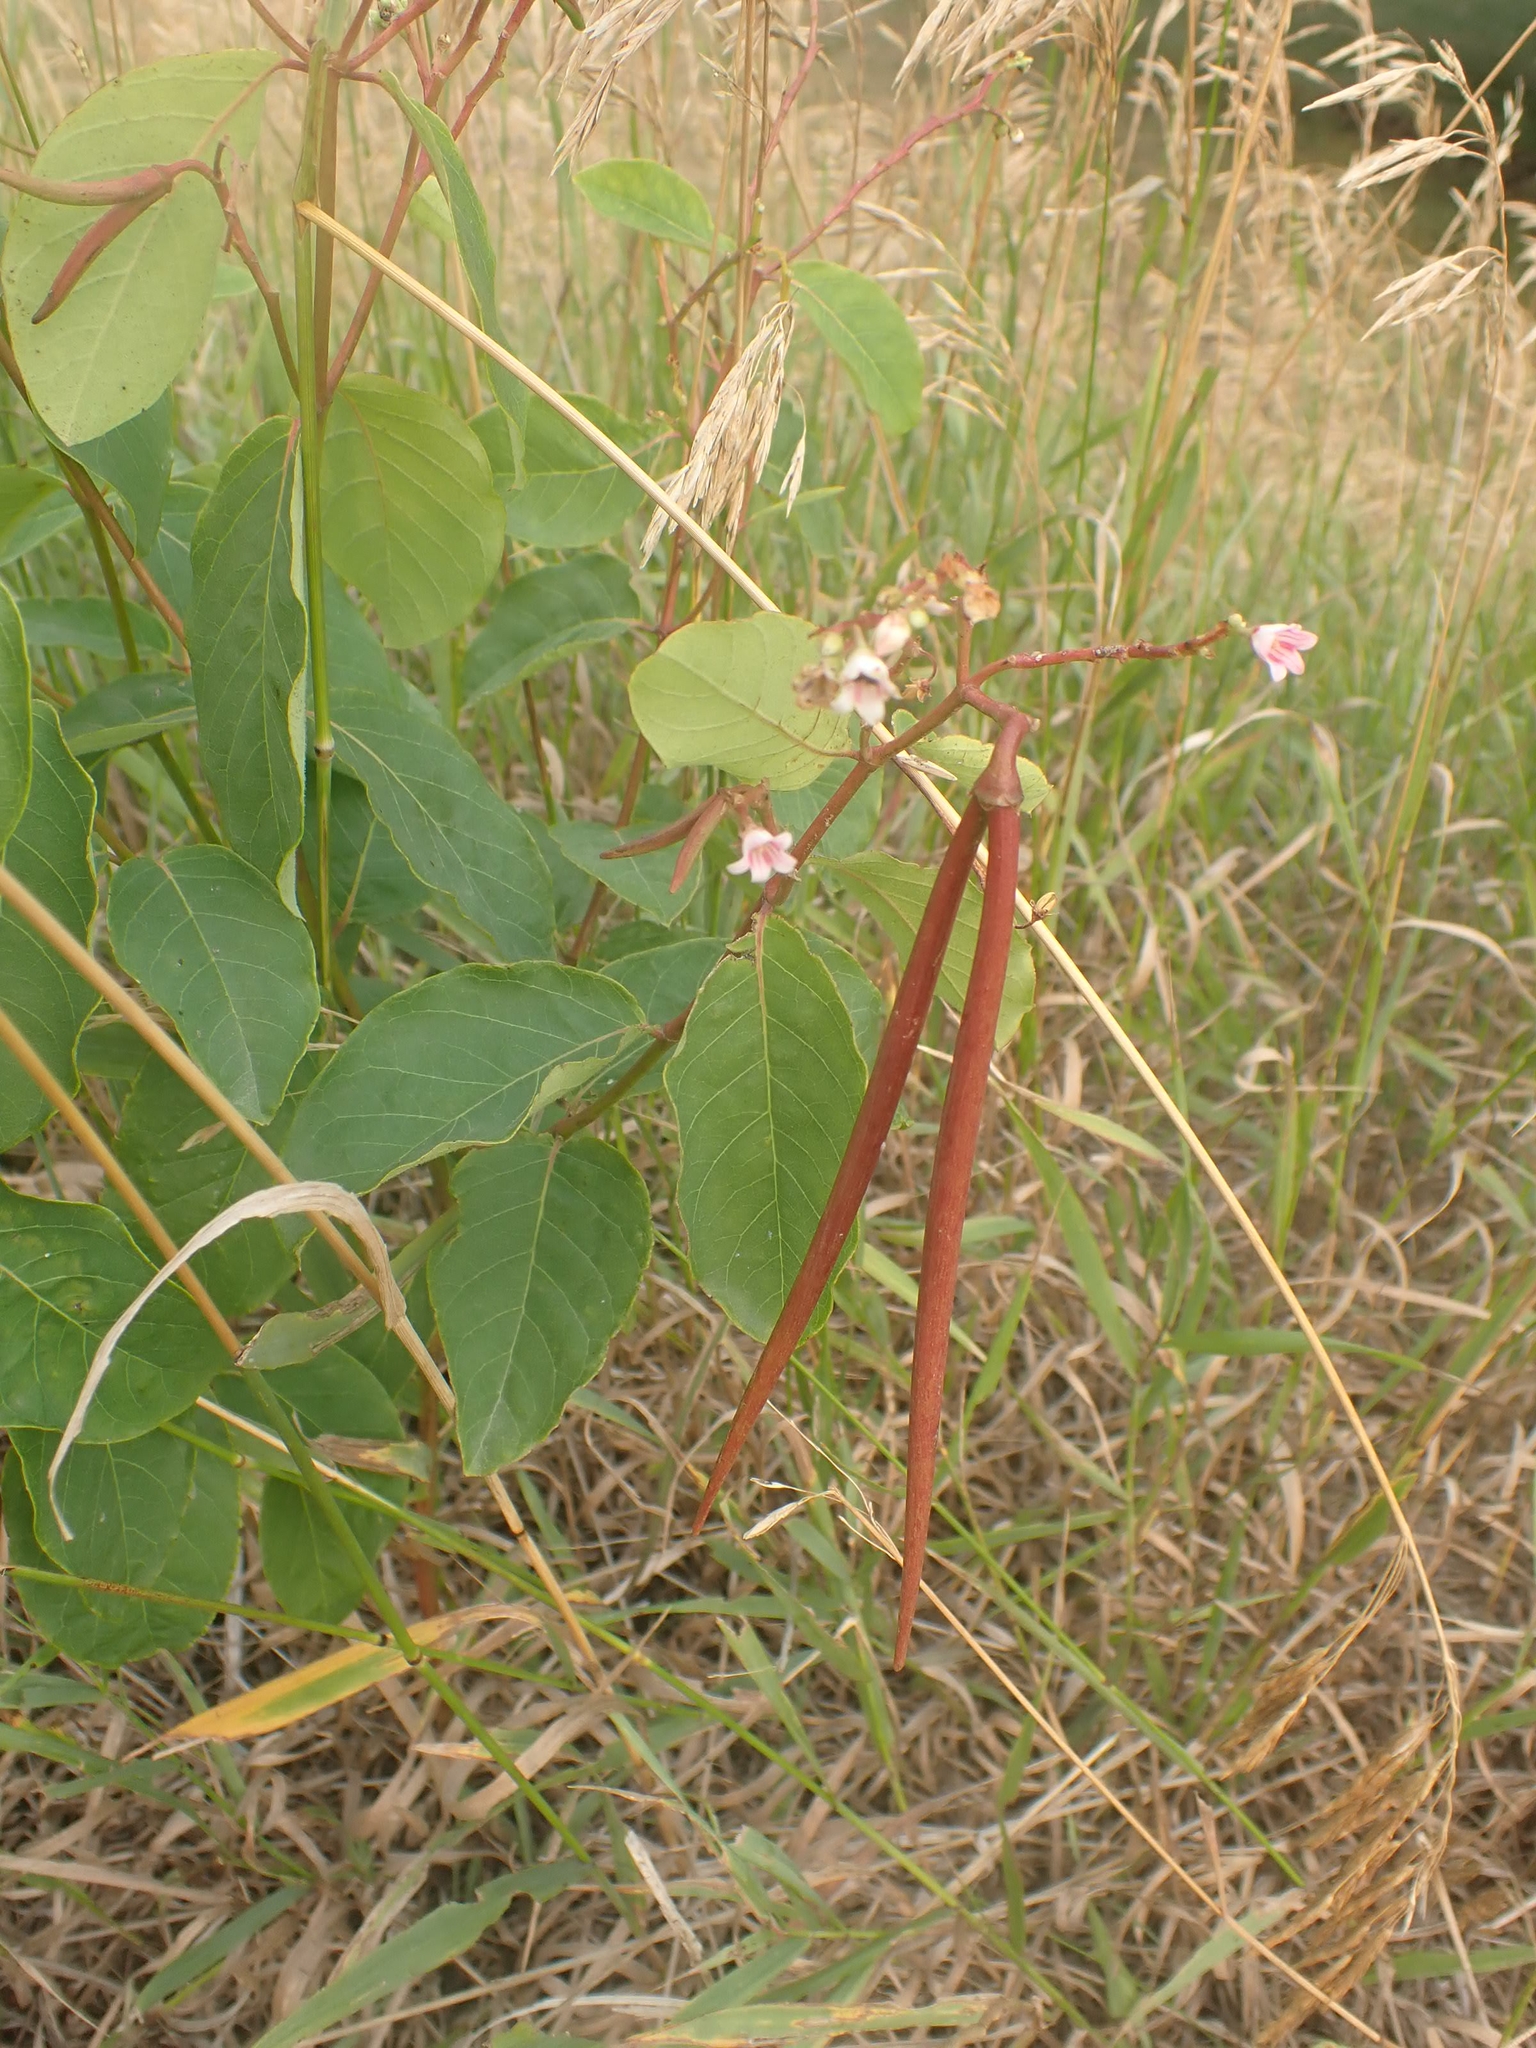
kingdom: Plantae
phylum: Tracheophyta
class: Magnoliopsida
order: Gentianales
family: Apocynaceae
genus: Apocynum
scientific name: Apocynum androsaemifolium
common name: Spreading dogbane
